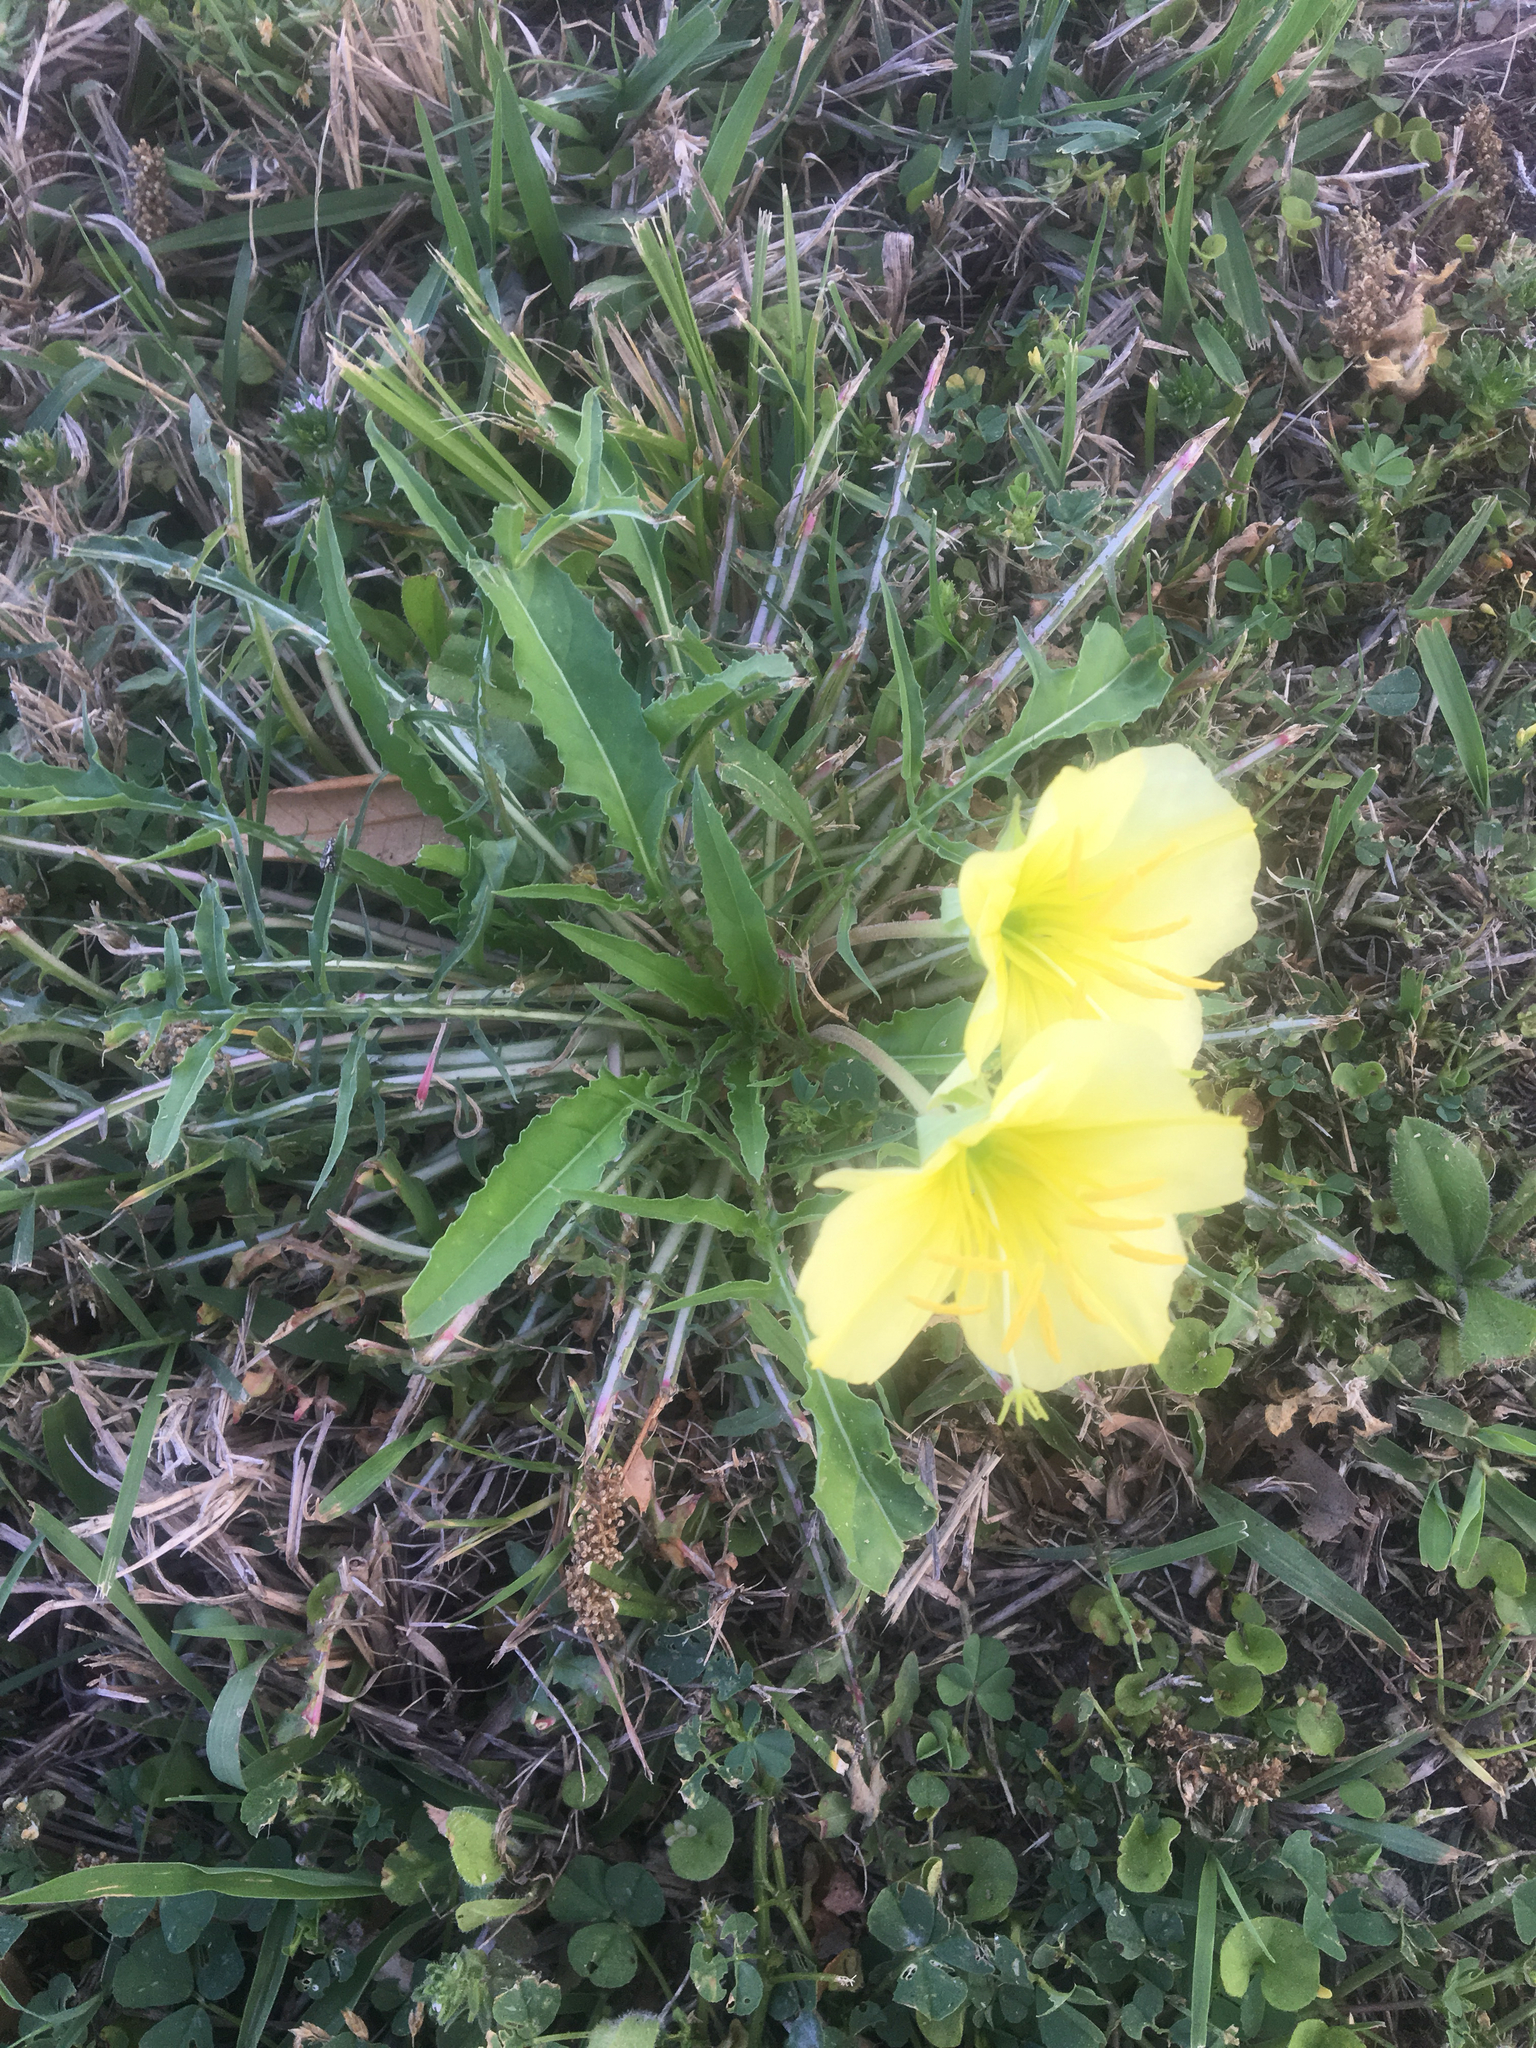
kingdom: Plantae
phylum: Tracheophyta
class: Magnoliopsida
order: Myrtales
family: Onagraceae
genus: Oenothera
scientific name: Oenothera triloba
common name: Sessile evening-primrose
